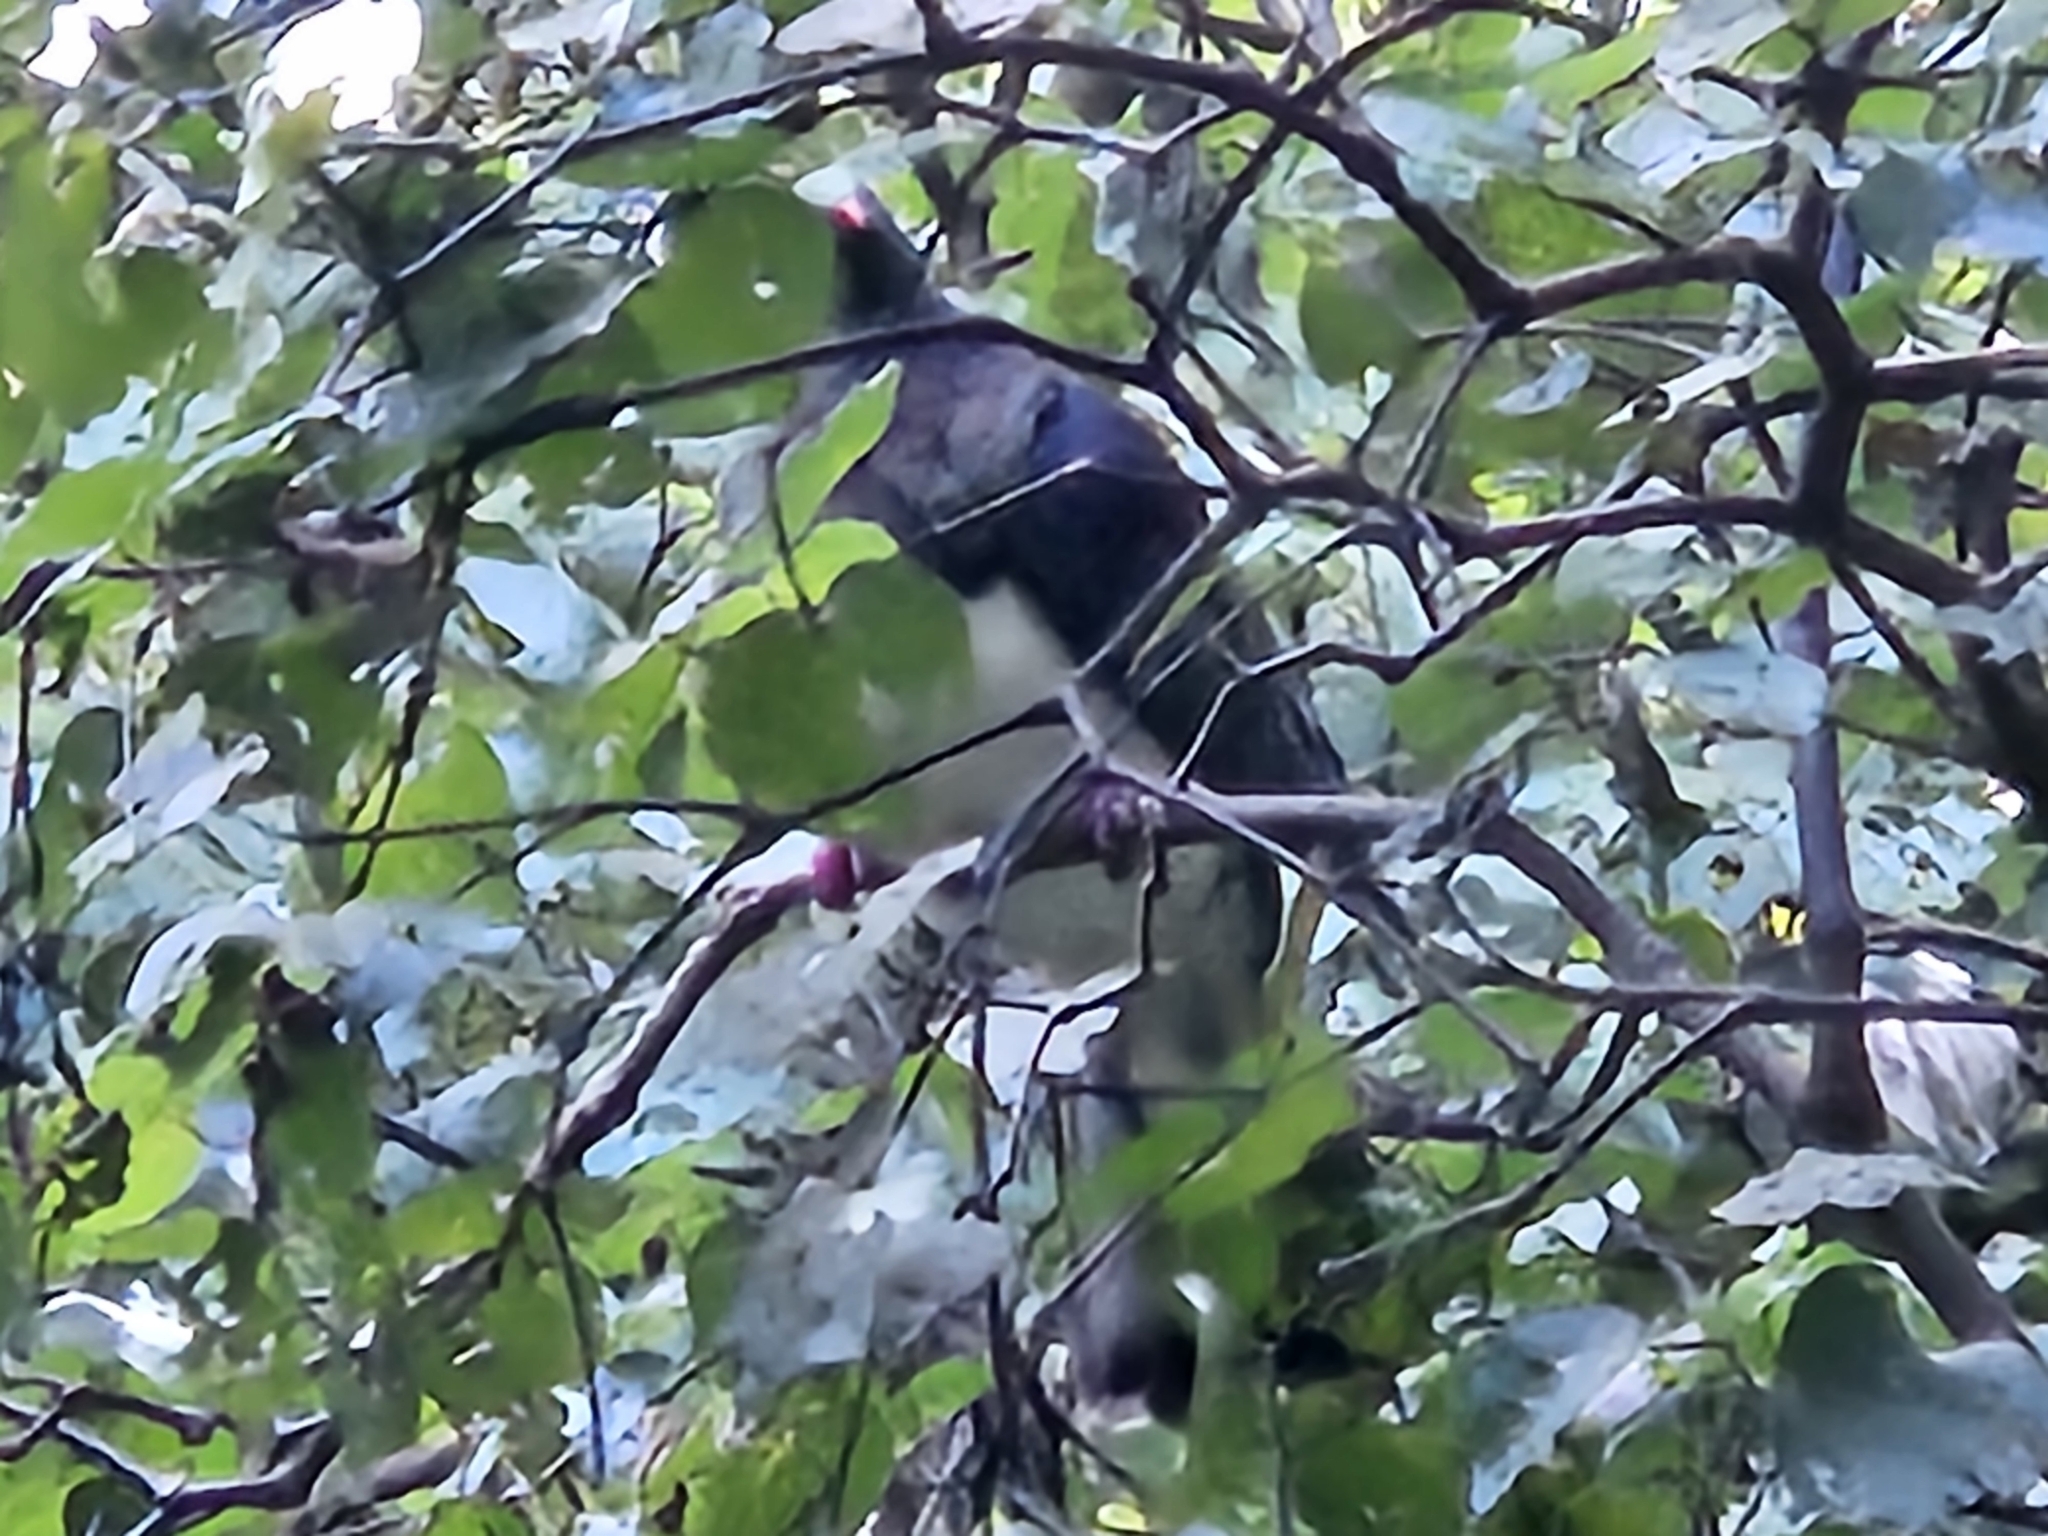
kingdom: Animalia
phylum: Chordata
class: Aves
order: Columbiformes
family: Columbidae
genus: Hemiphaga
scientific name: Hemiphaga novaeseelandiae
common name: New zealand pigeon
